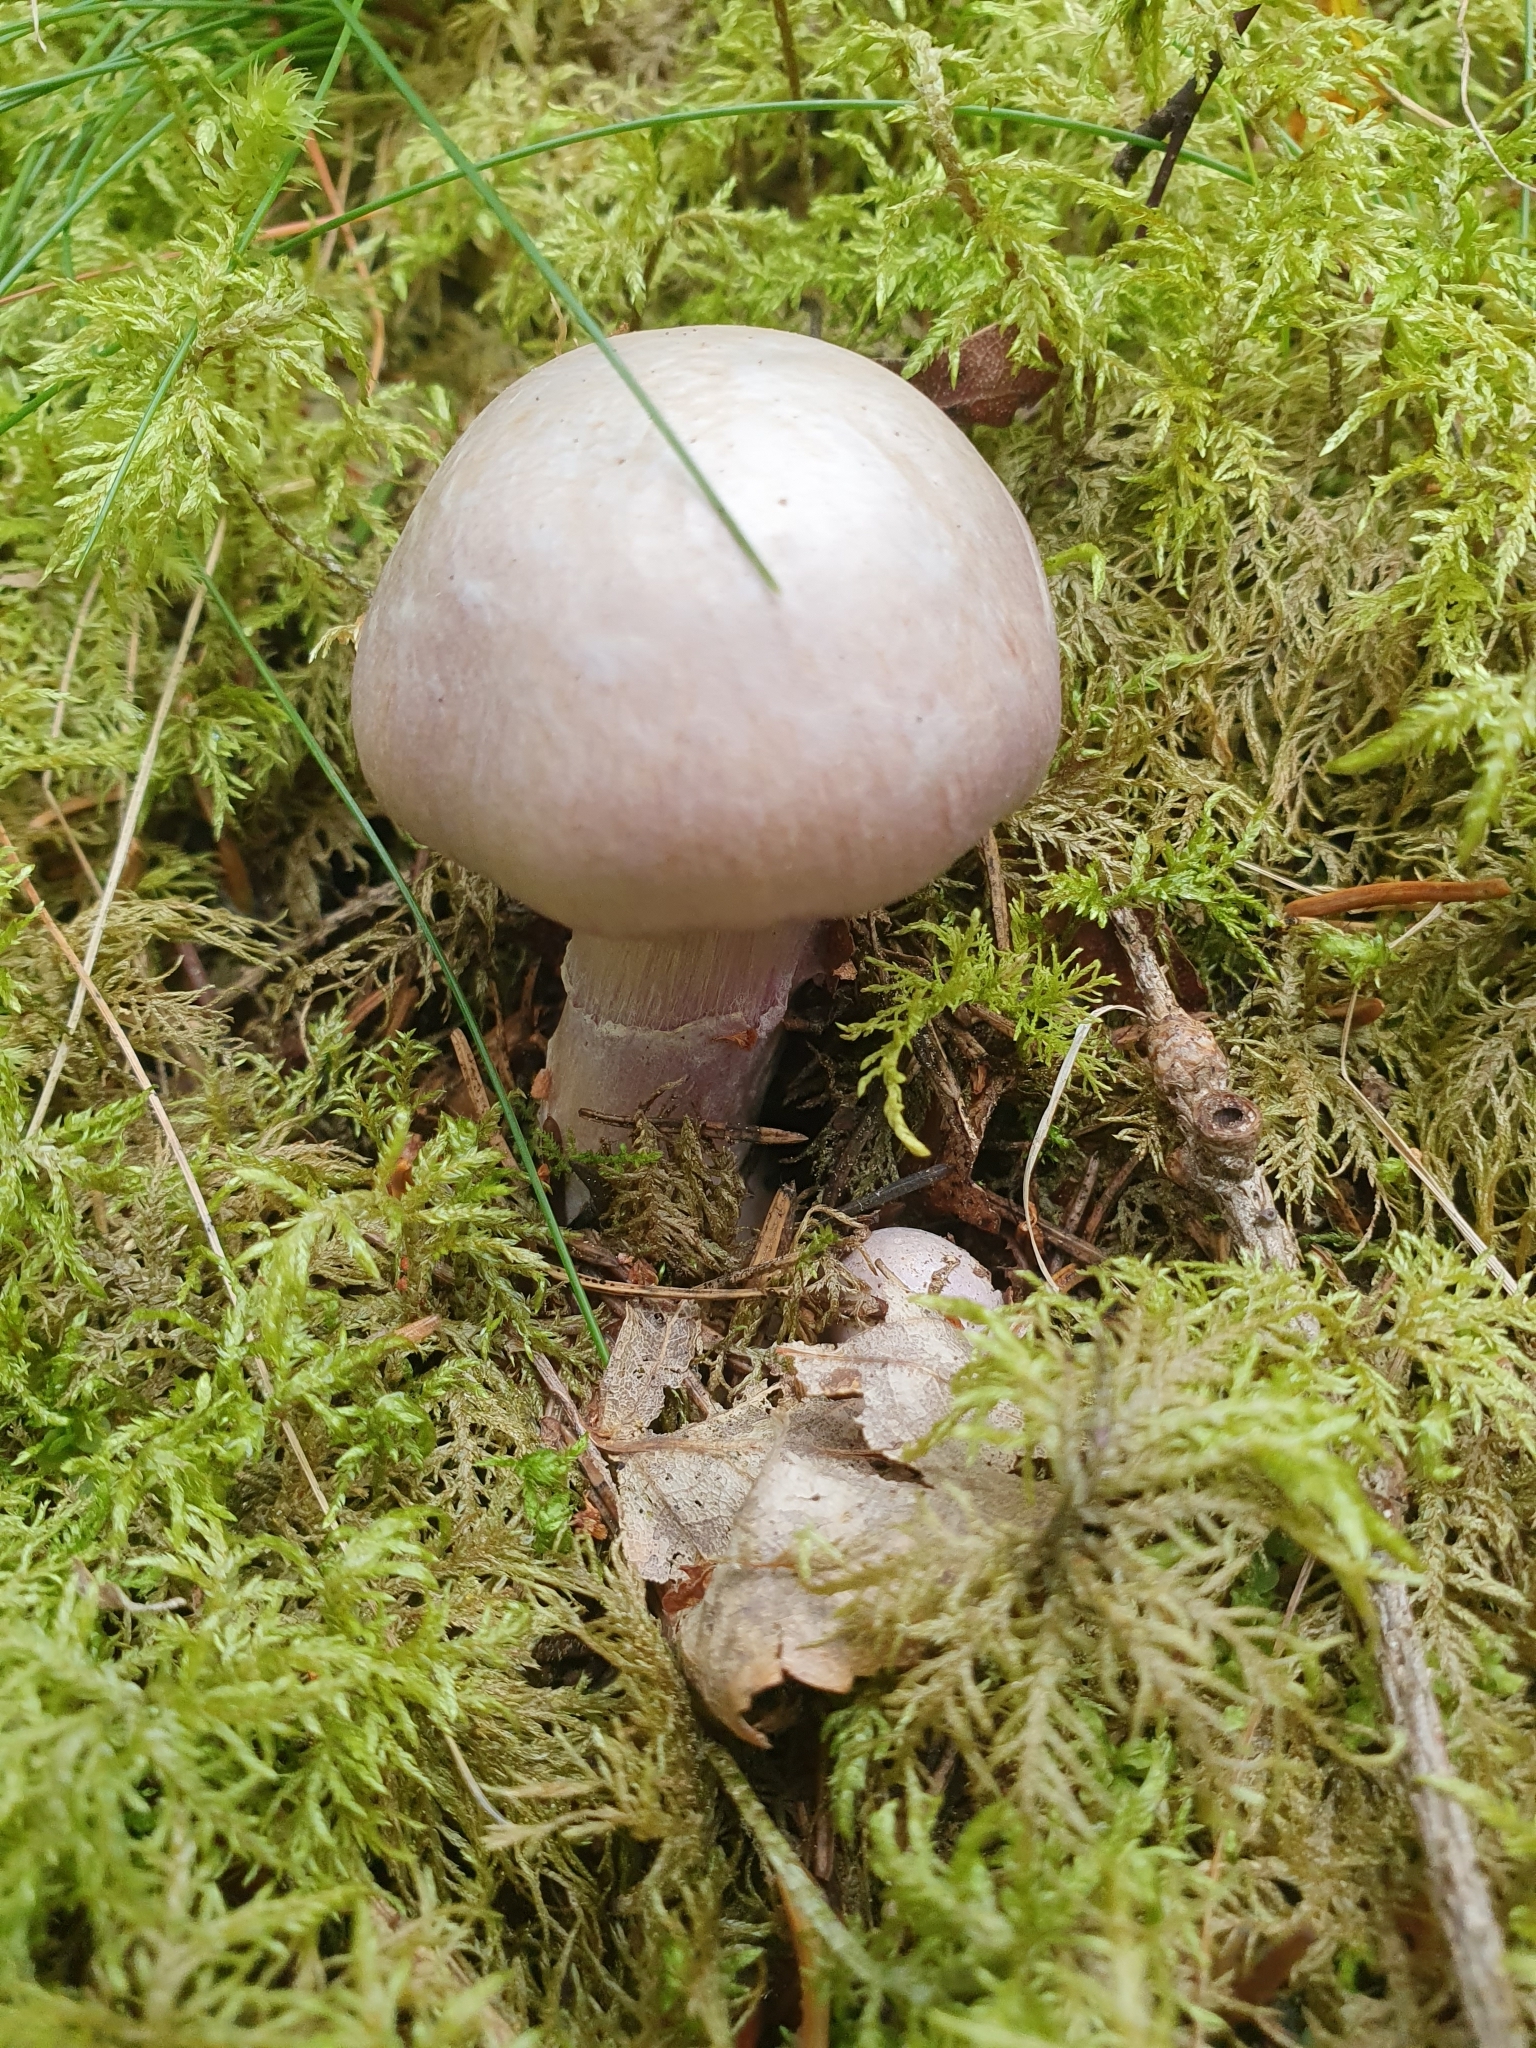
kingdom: Fungi
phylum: Basidiomycota
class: Agaricomycetes
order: Agaricales
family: Cortinariaceae
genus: Cortinarius
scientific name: Cortinarius traganus
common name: Gassy webcap
